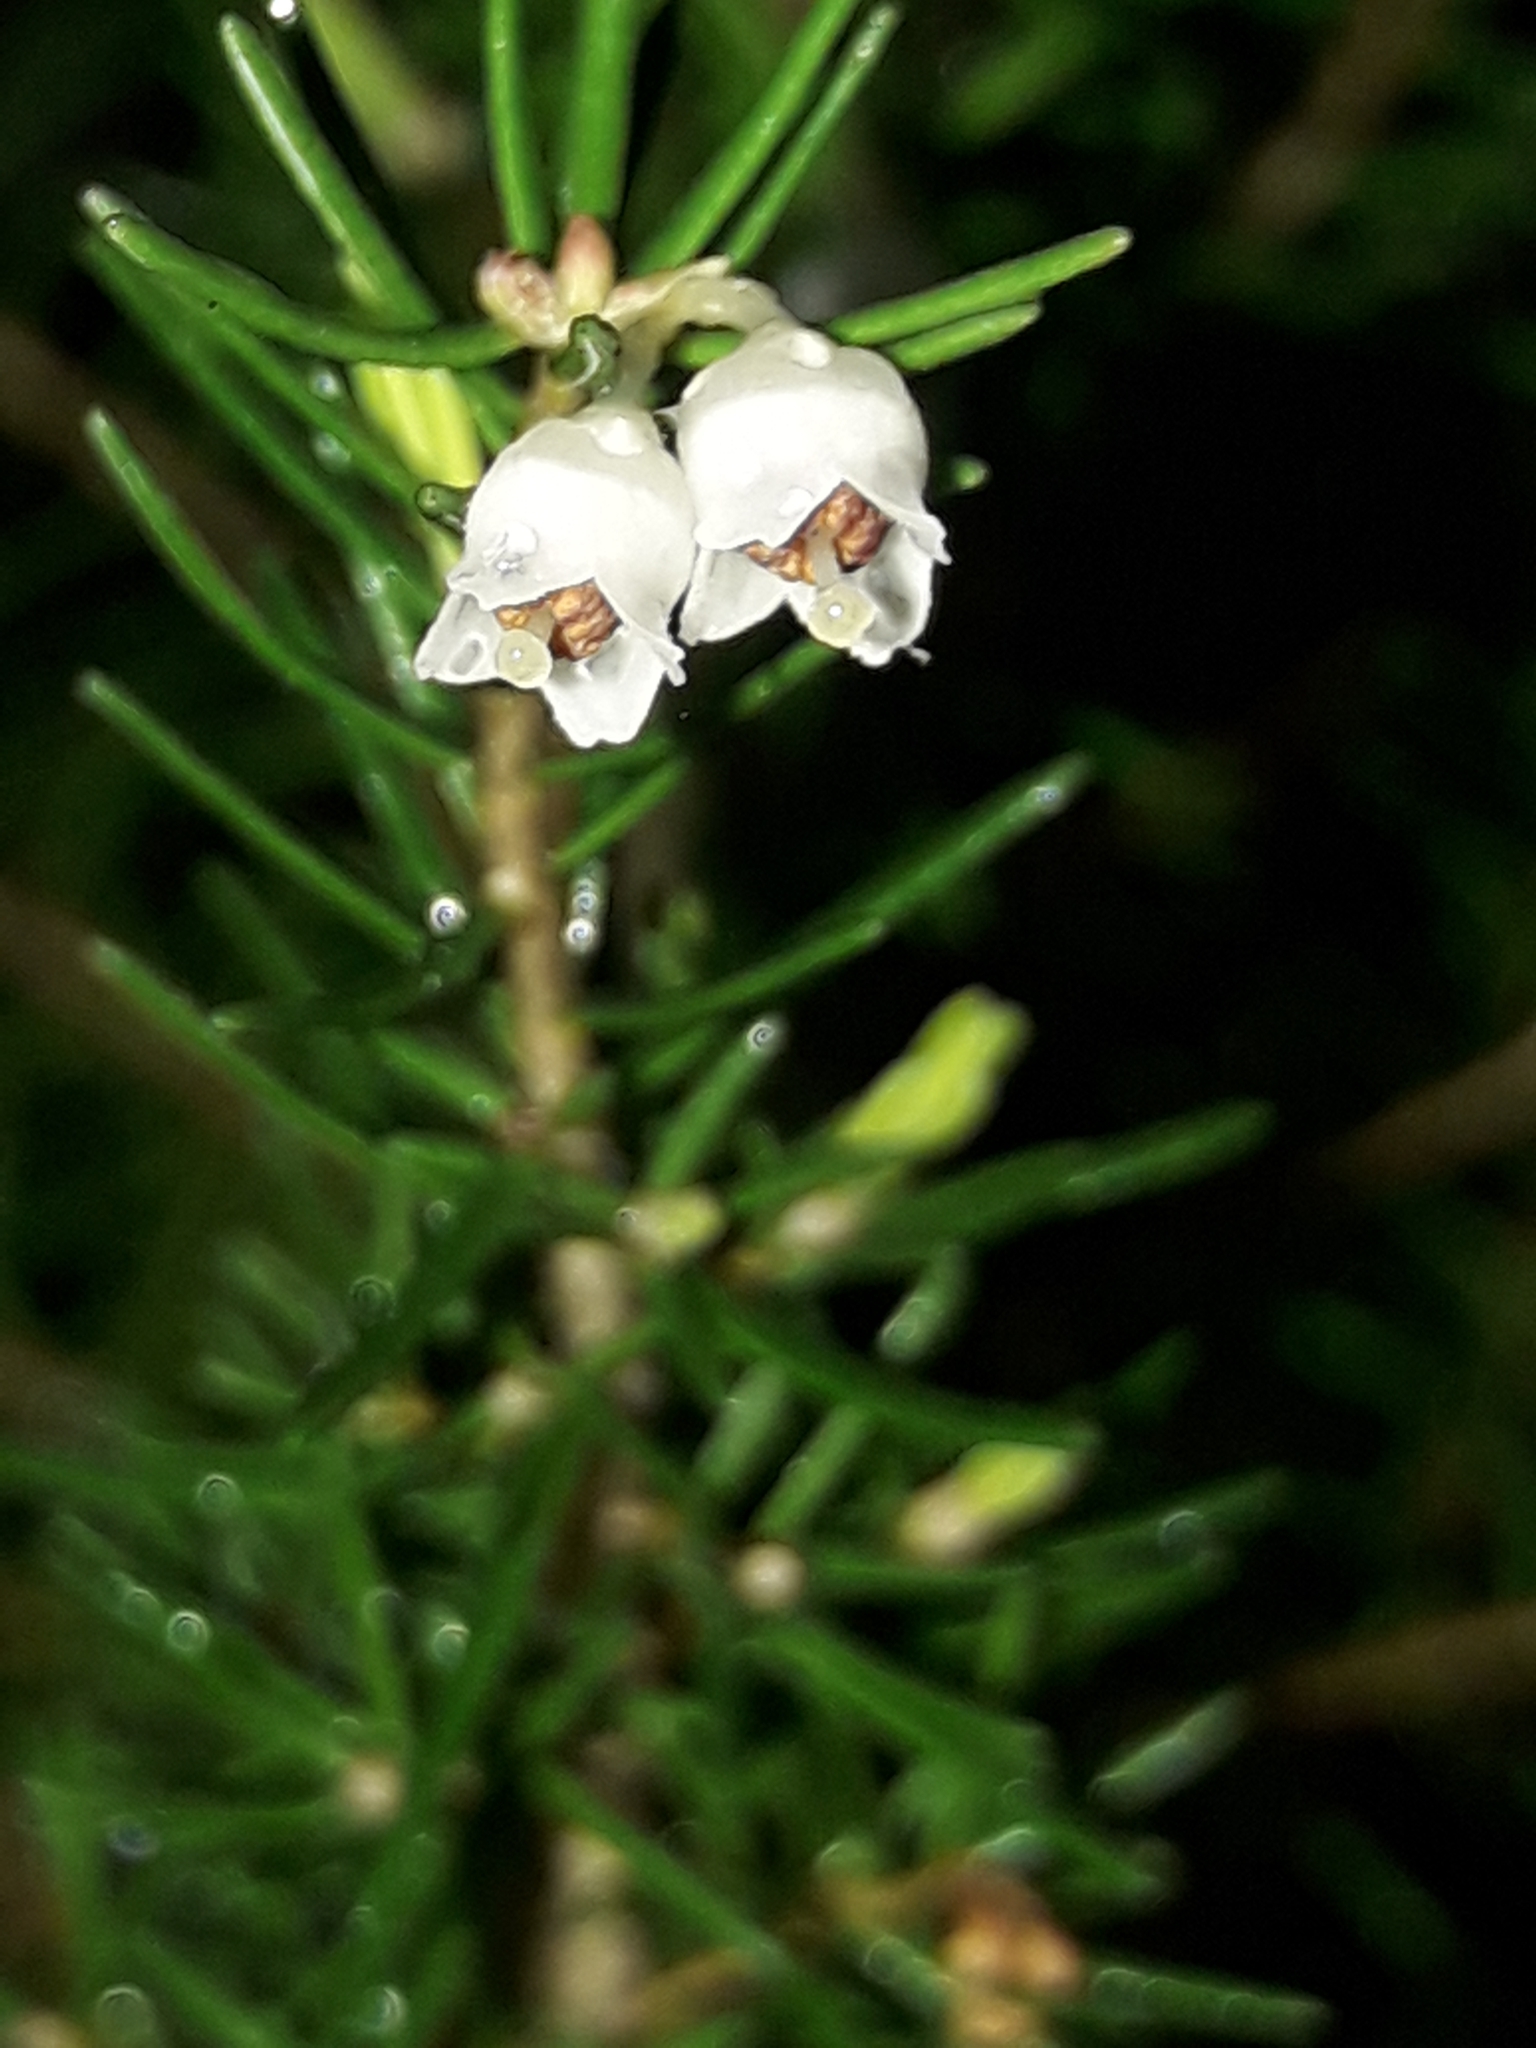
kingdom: Plantae
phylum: Tracheophyta
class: Magnoliopsida
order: Ericales
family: Ericaceae
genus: Erica
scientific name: Erica arborea
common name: Tree heath
